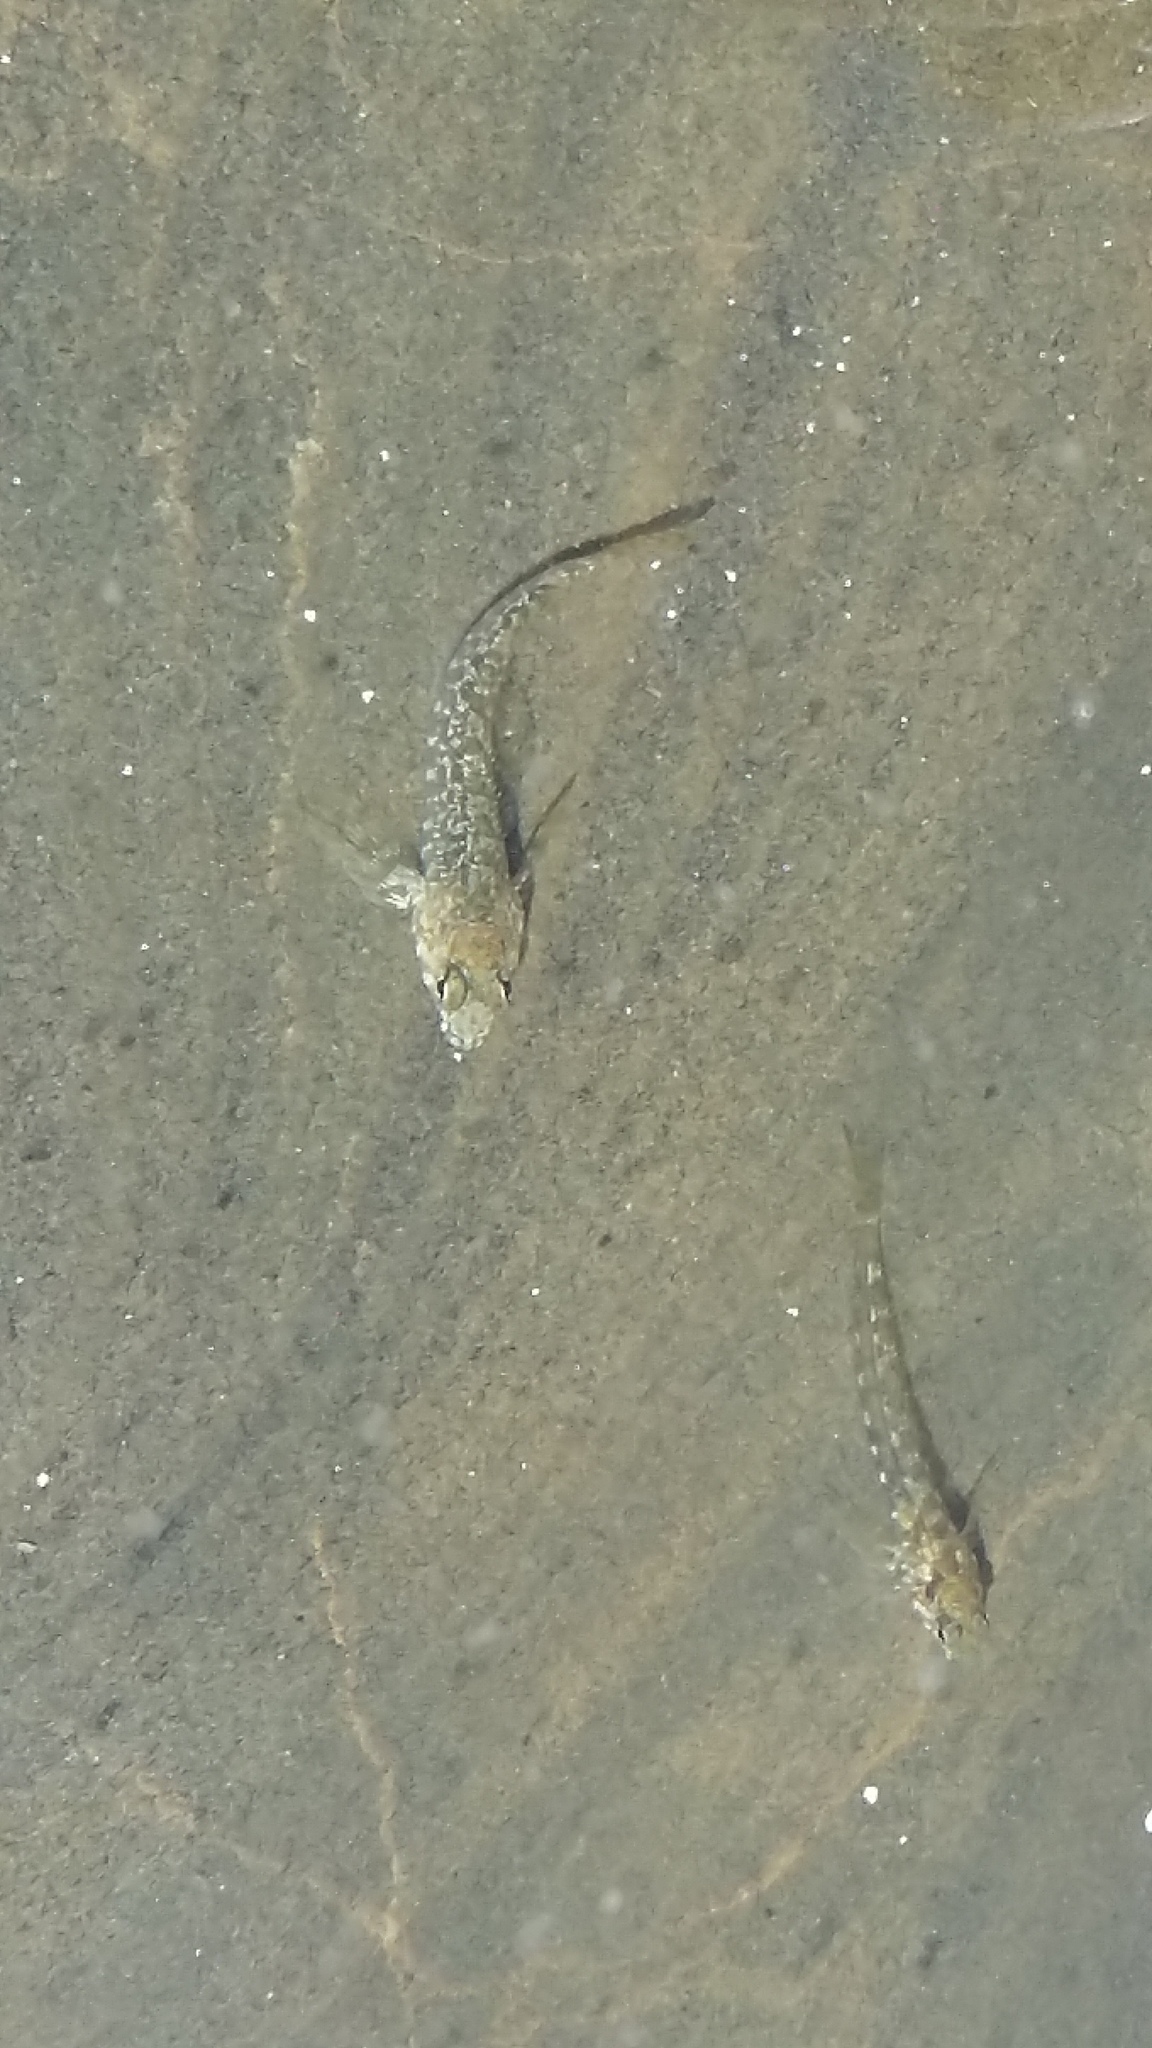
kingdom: Animalia
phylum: Chordata
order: Perciformes
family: Tripterygiidae
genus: Bellapiscis
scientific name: Bellapiscis medius
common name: Twister
